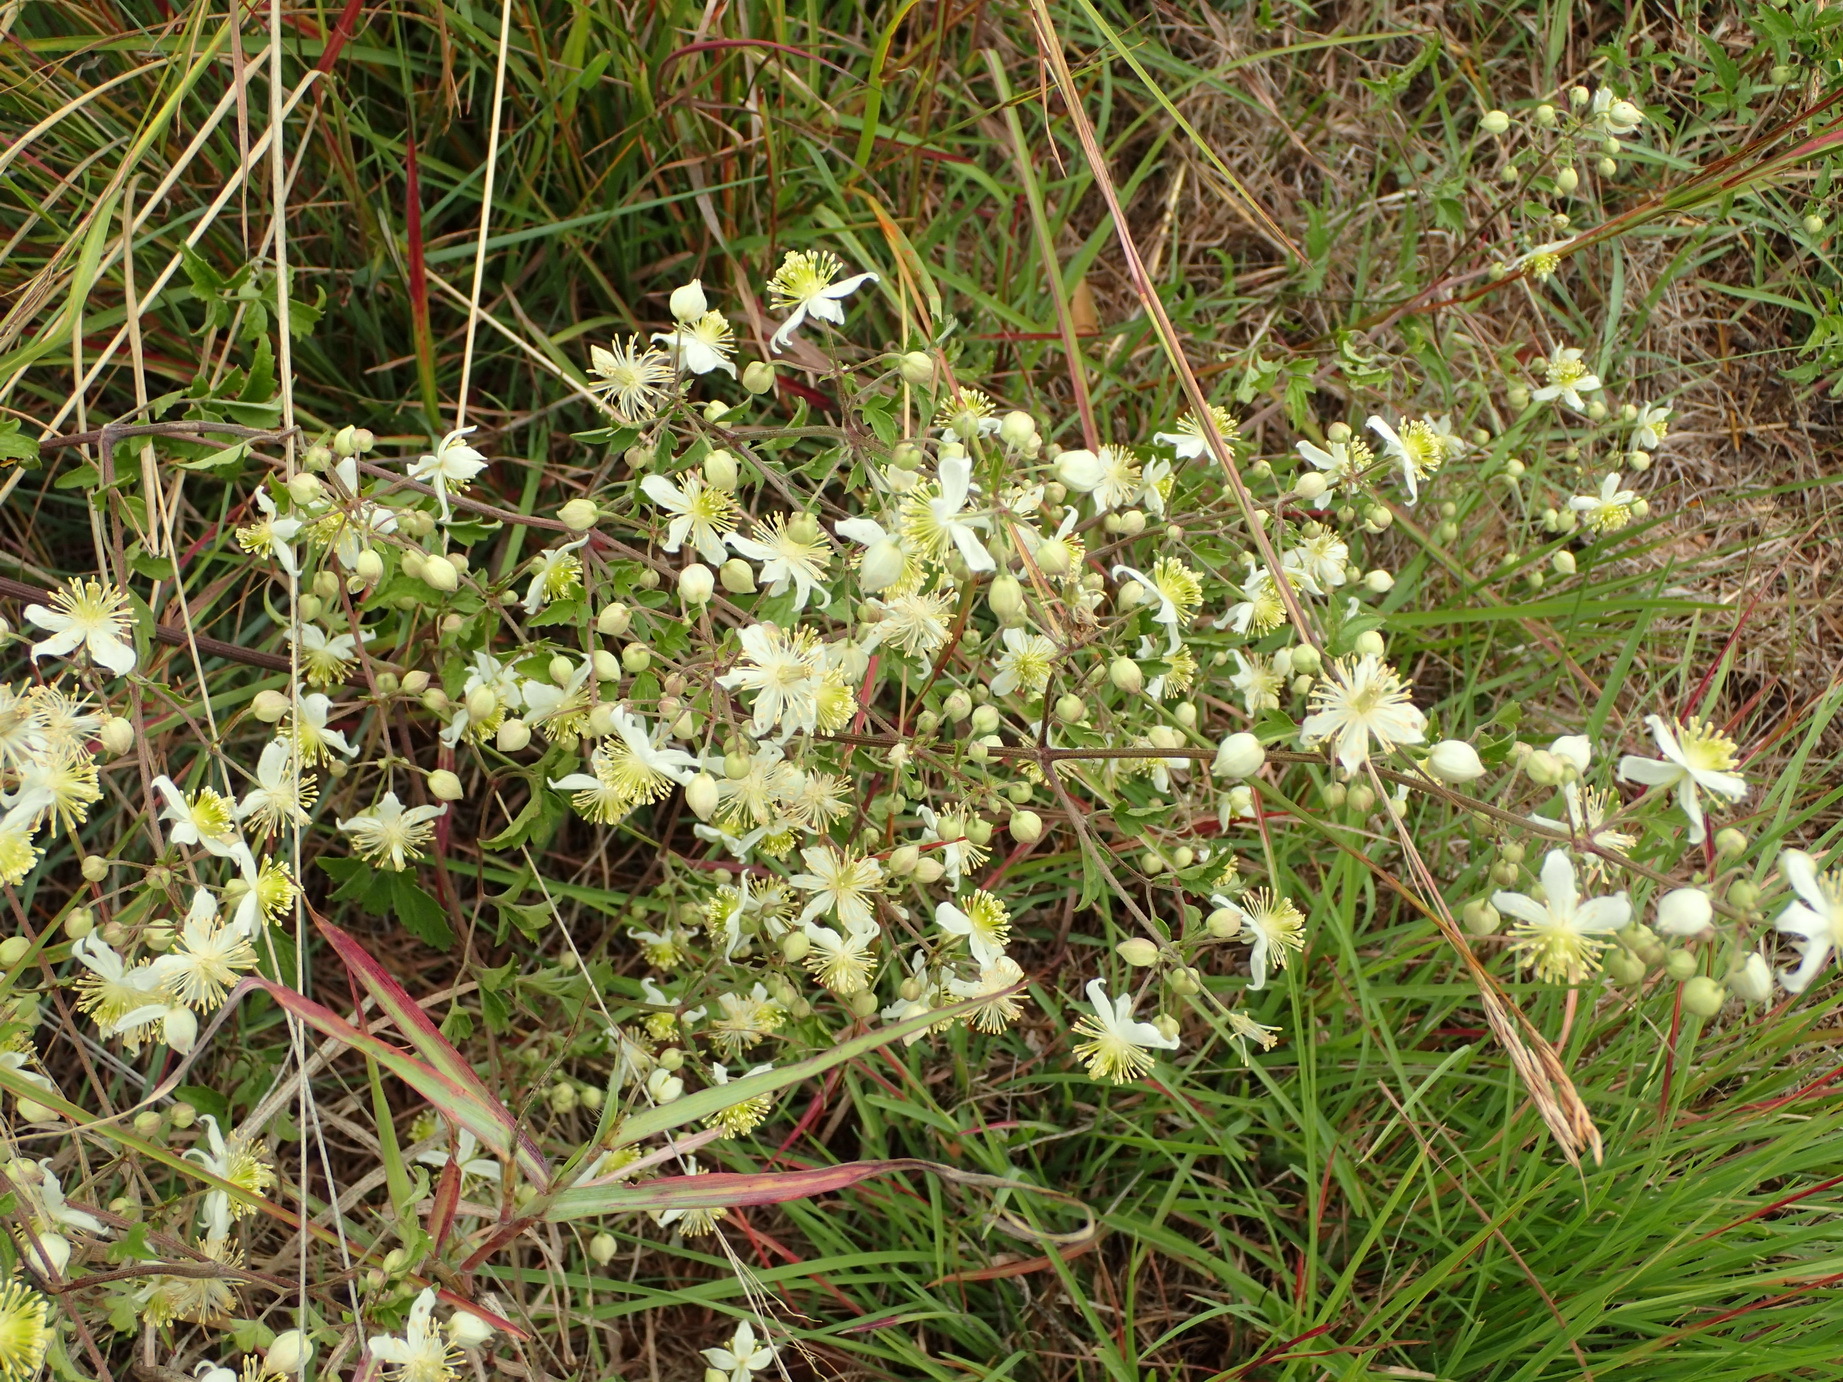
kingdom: Plantae
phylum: Tracheophyta
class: Magnoliopsida
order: Ranunculales
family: Ranunculaceae
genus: Clematis
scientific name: Clematis brachiata
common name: Traveler's-joy
